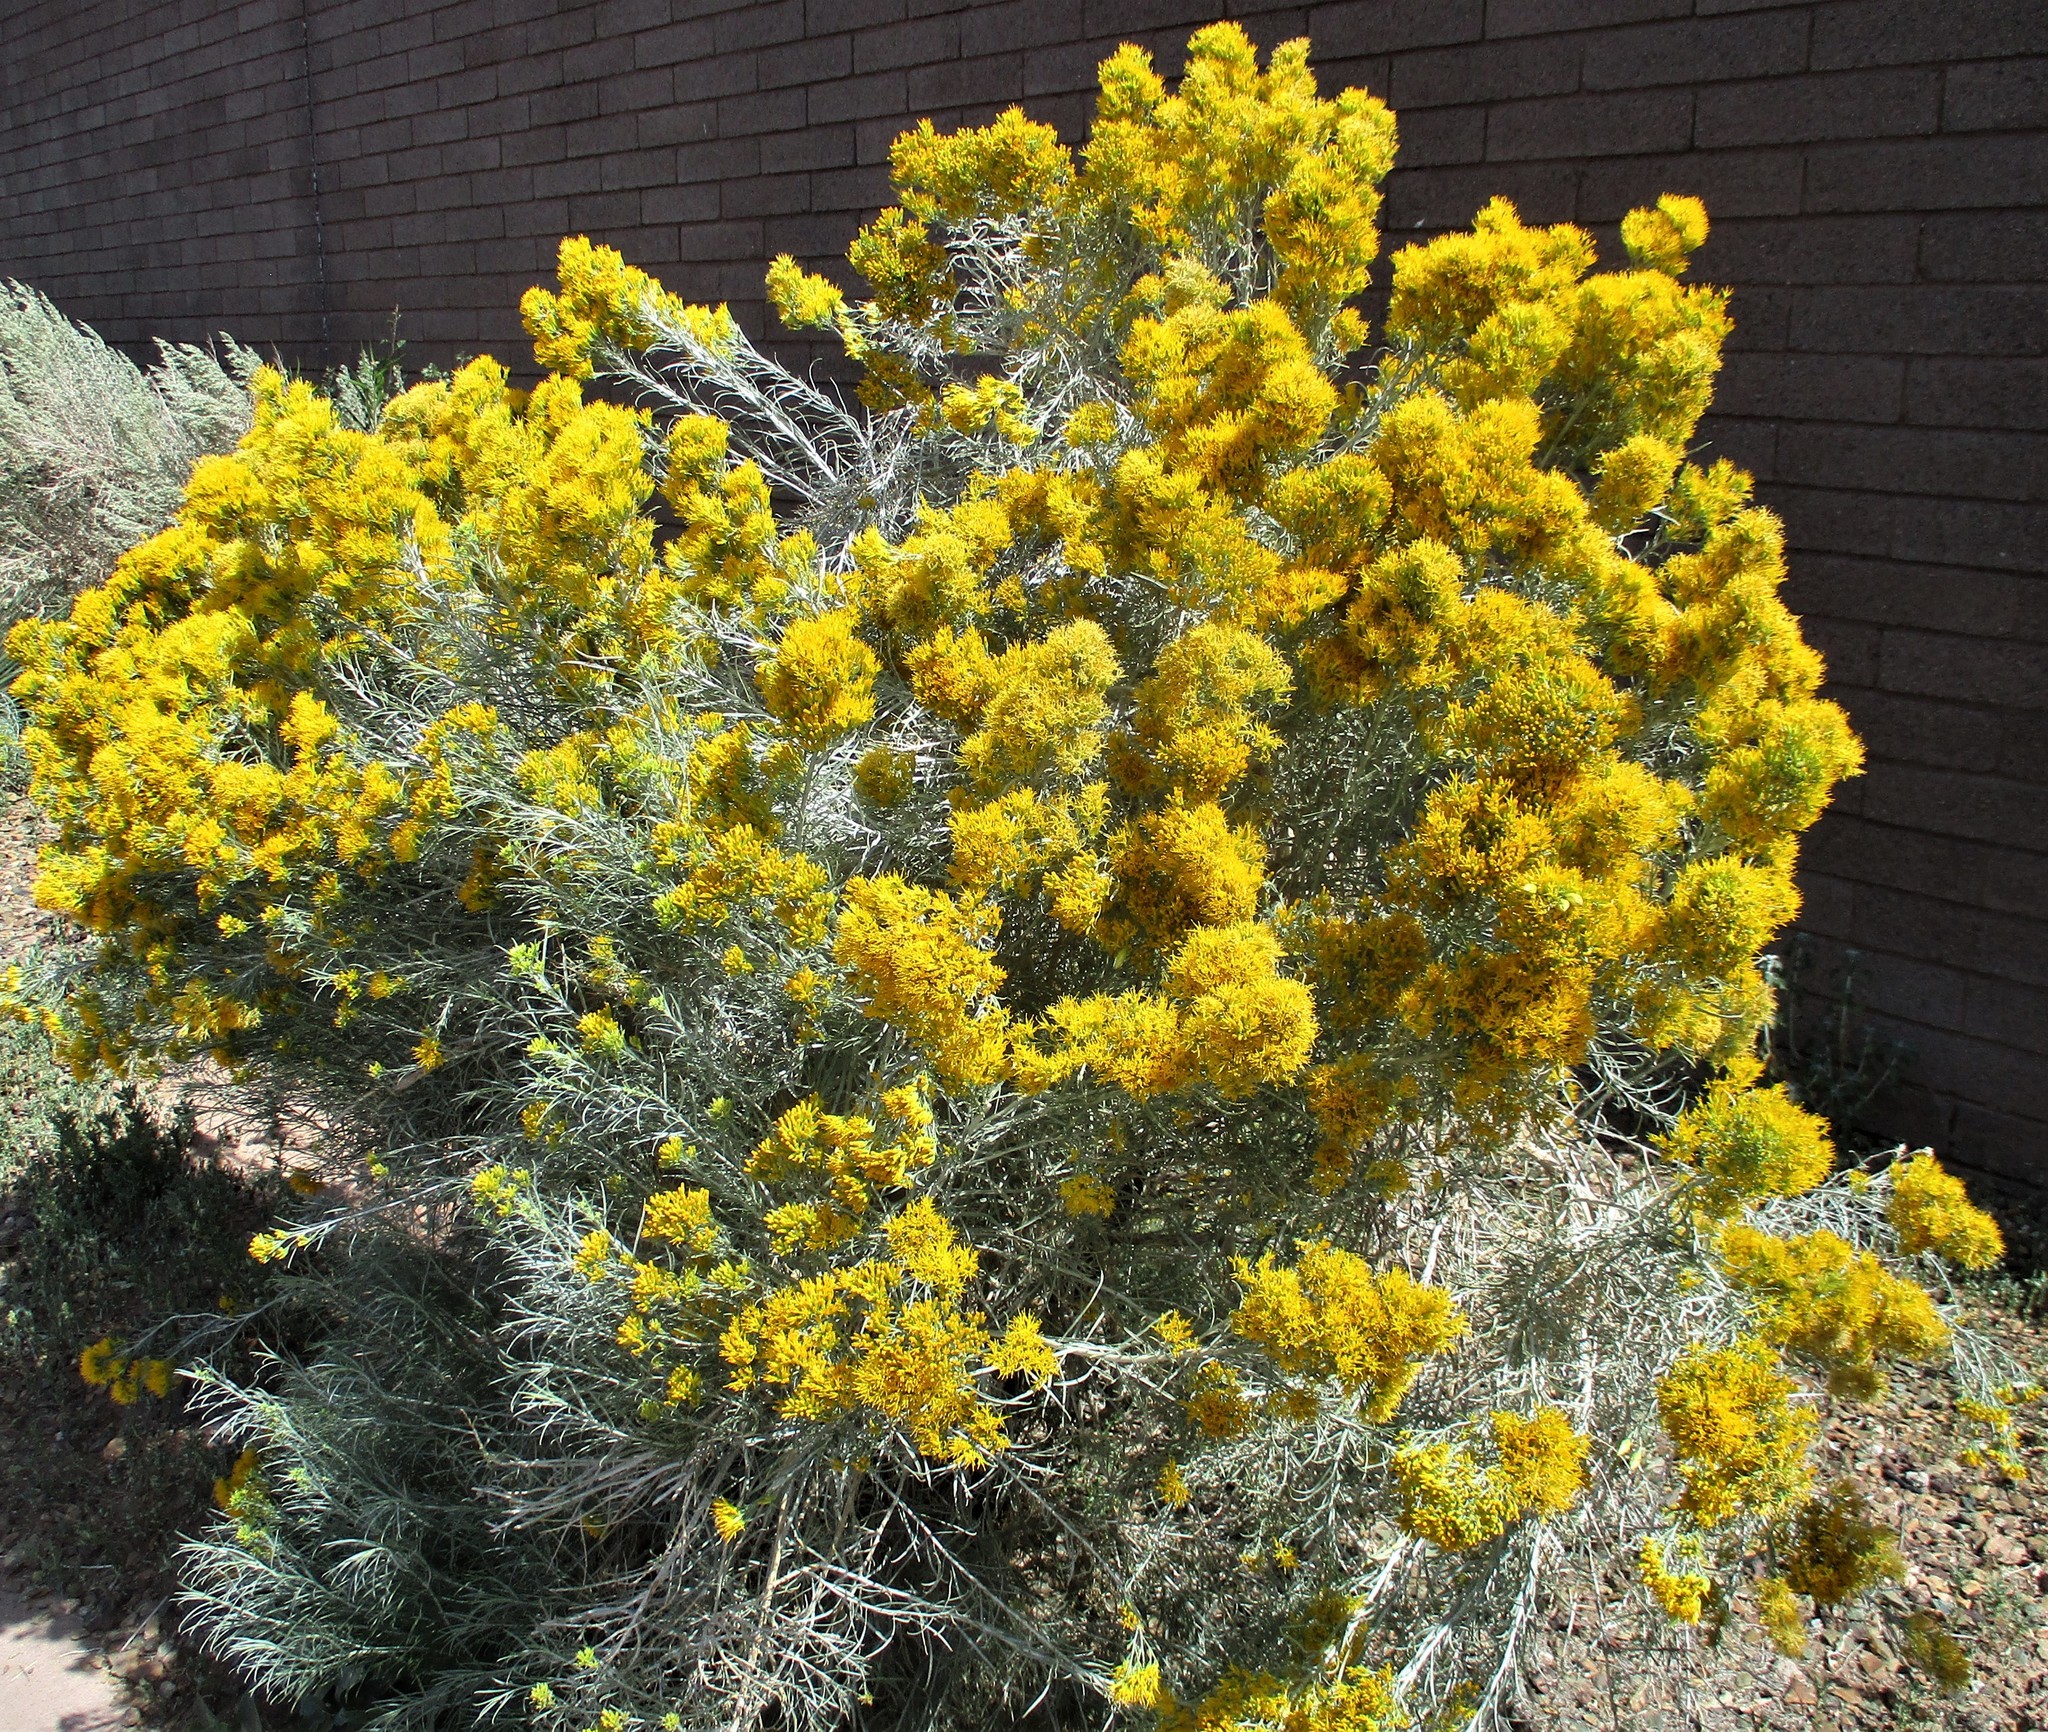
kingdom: Plantae
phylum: Tracheophyta
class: Magnoliopsida
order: Asterales
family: Asteraceae
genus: Ericameria
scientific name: Ericameria nauseosa
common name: Rubber rabbitbrush
